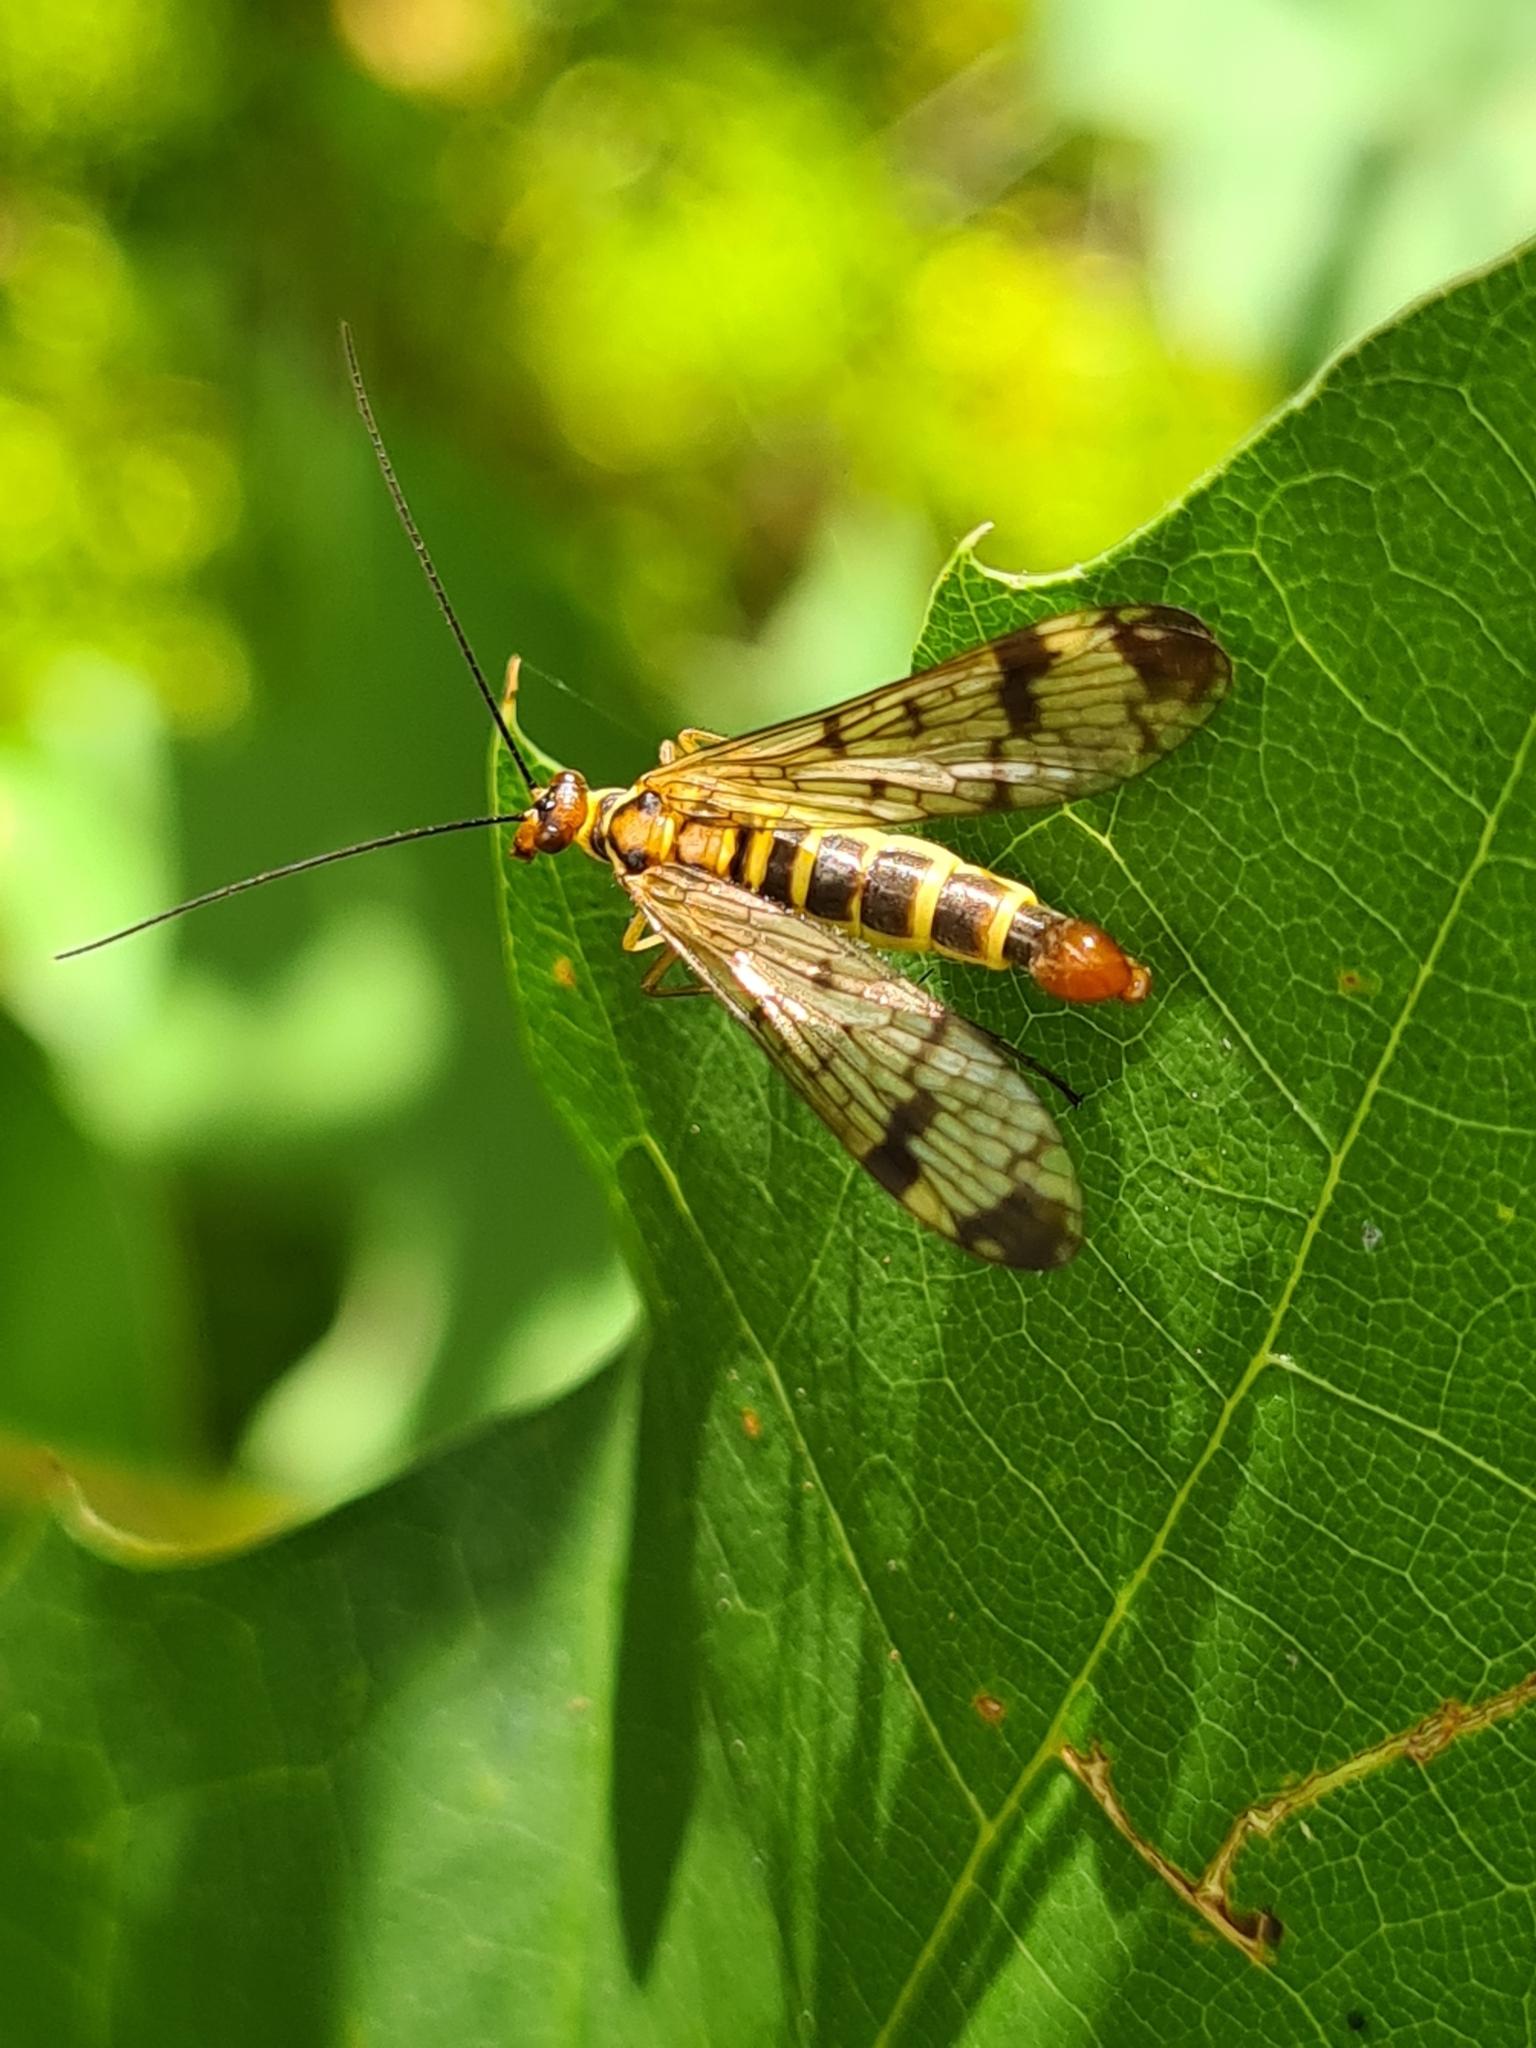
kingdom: Animalia
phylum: Arthropoda
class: Insecta
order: Mecoptera
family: Panorpidae
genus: Panorpa
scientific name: Panorpa communis
